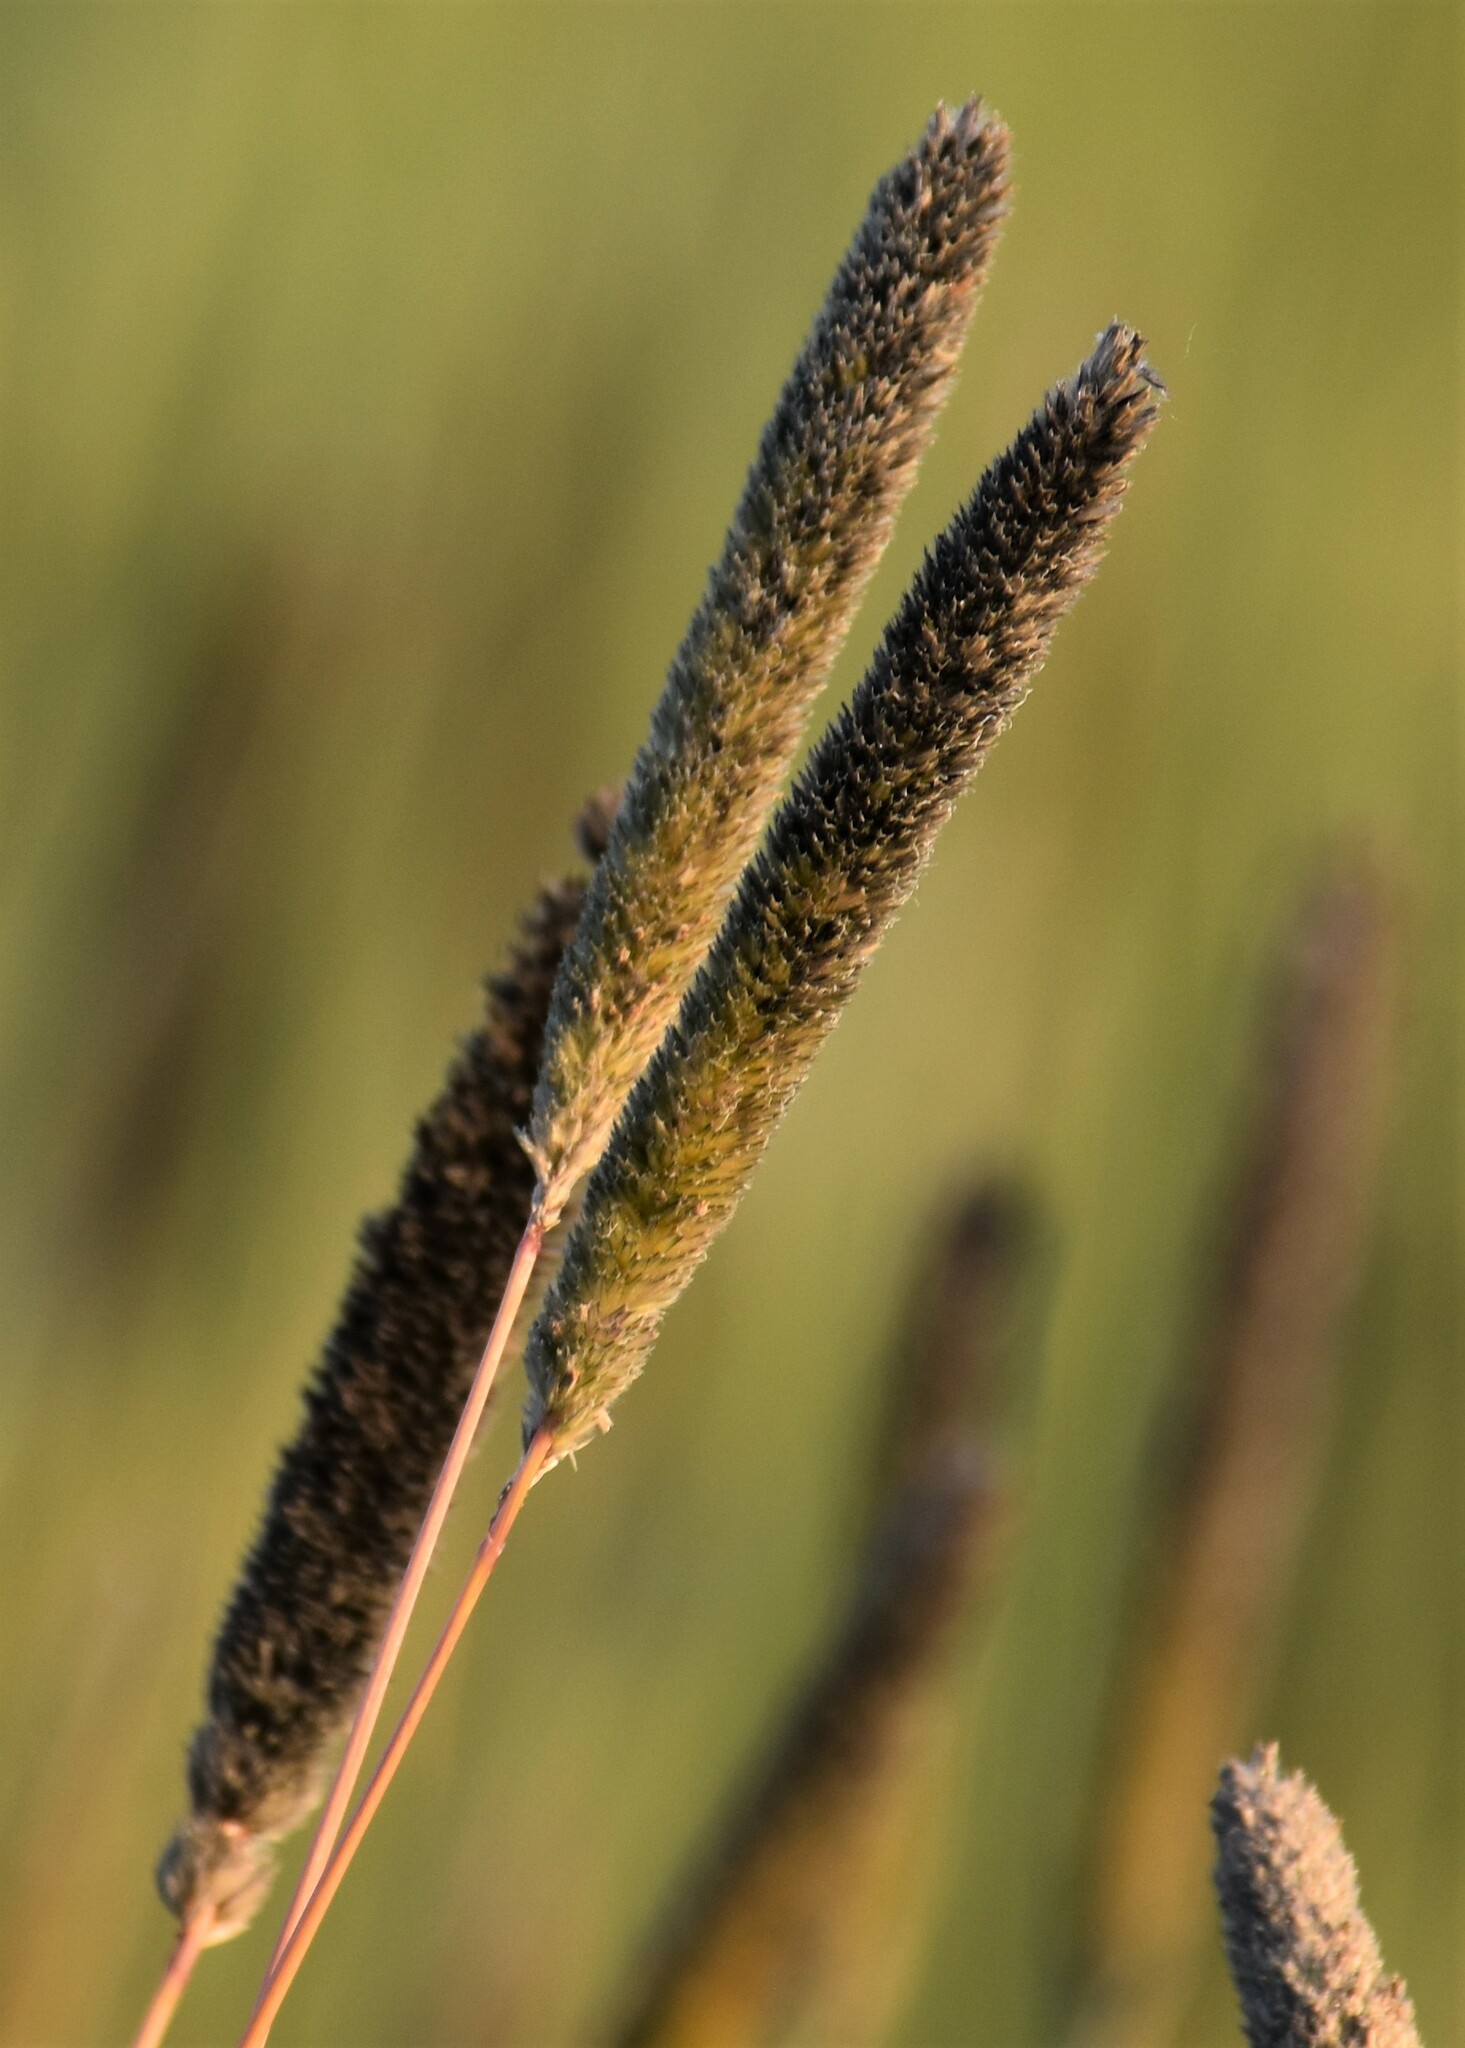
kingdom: Plantae
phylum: Tracheophyta
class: Liliopsida
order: Poales
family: Poaceae
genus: Phleum
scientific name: Phleum pratense
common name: Timothy grass
